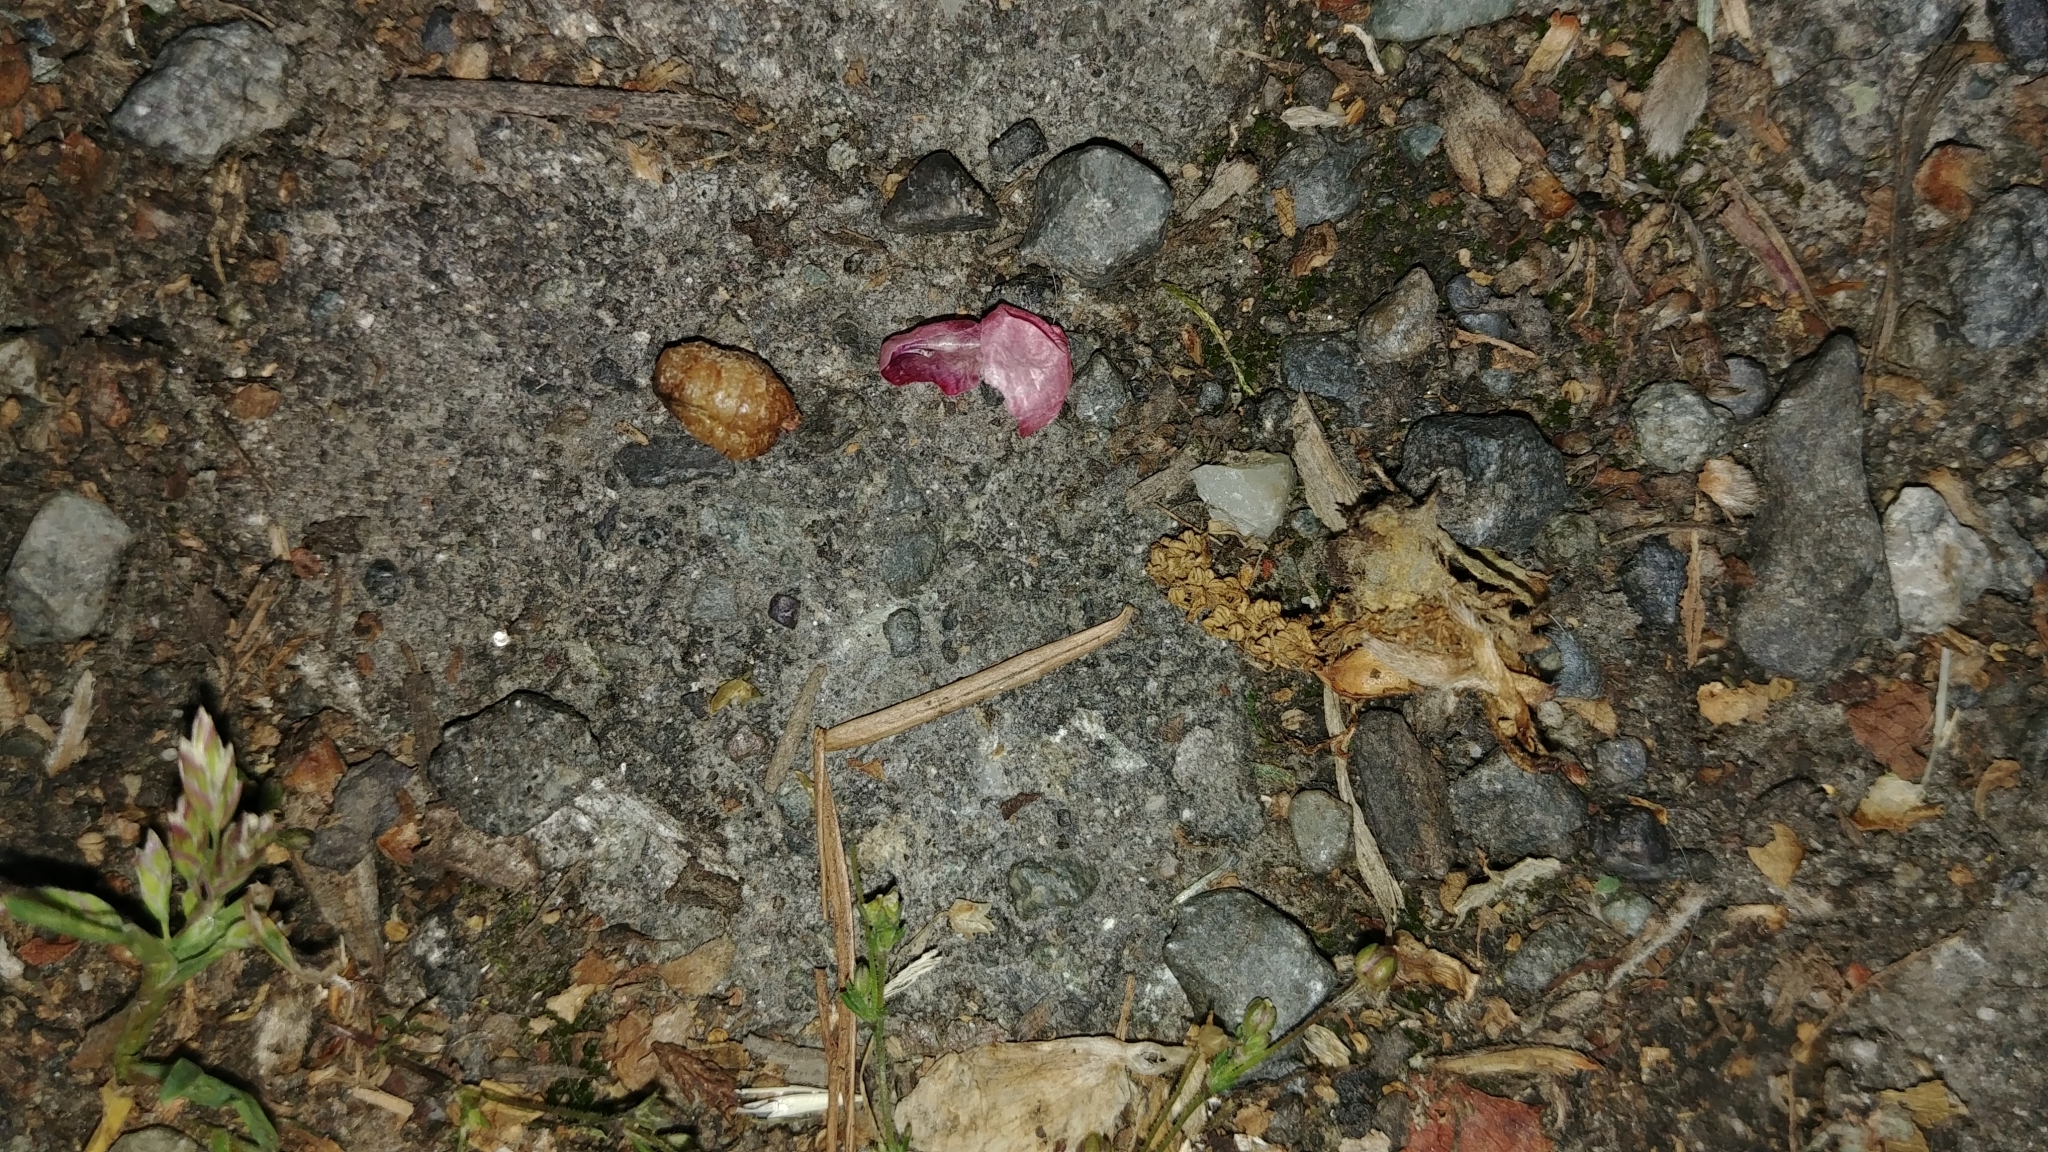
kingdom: Plantae
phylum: Tracheophyta
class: Magnoliopsida
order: Apiales
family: Araliaceae
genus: Hedera
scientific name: Hedera helix
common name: Ivy
